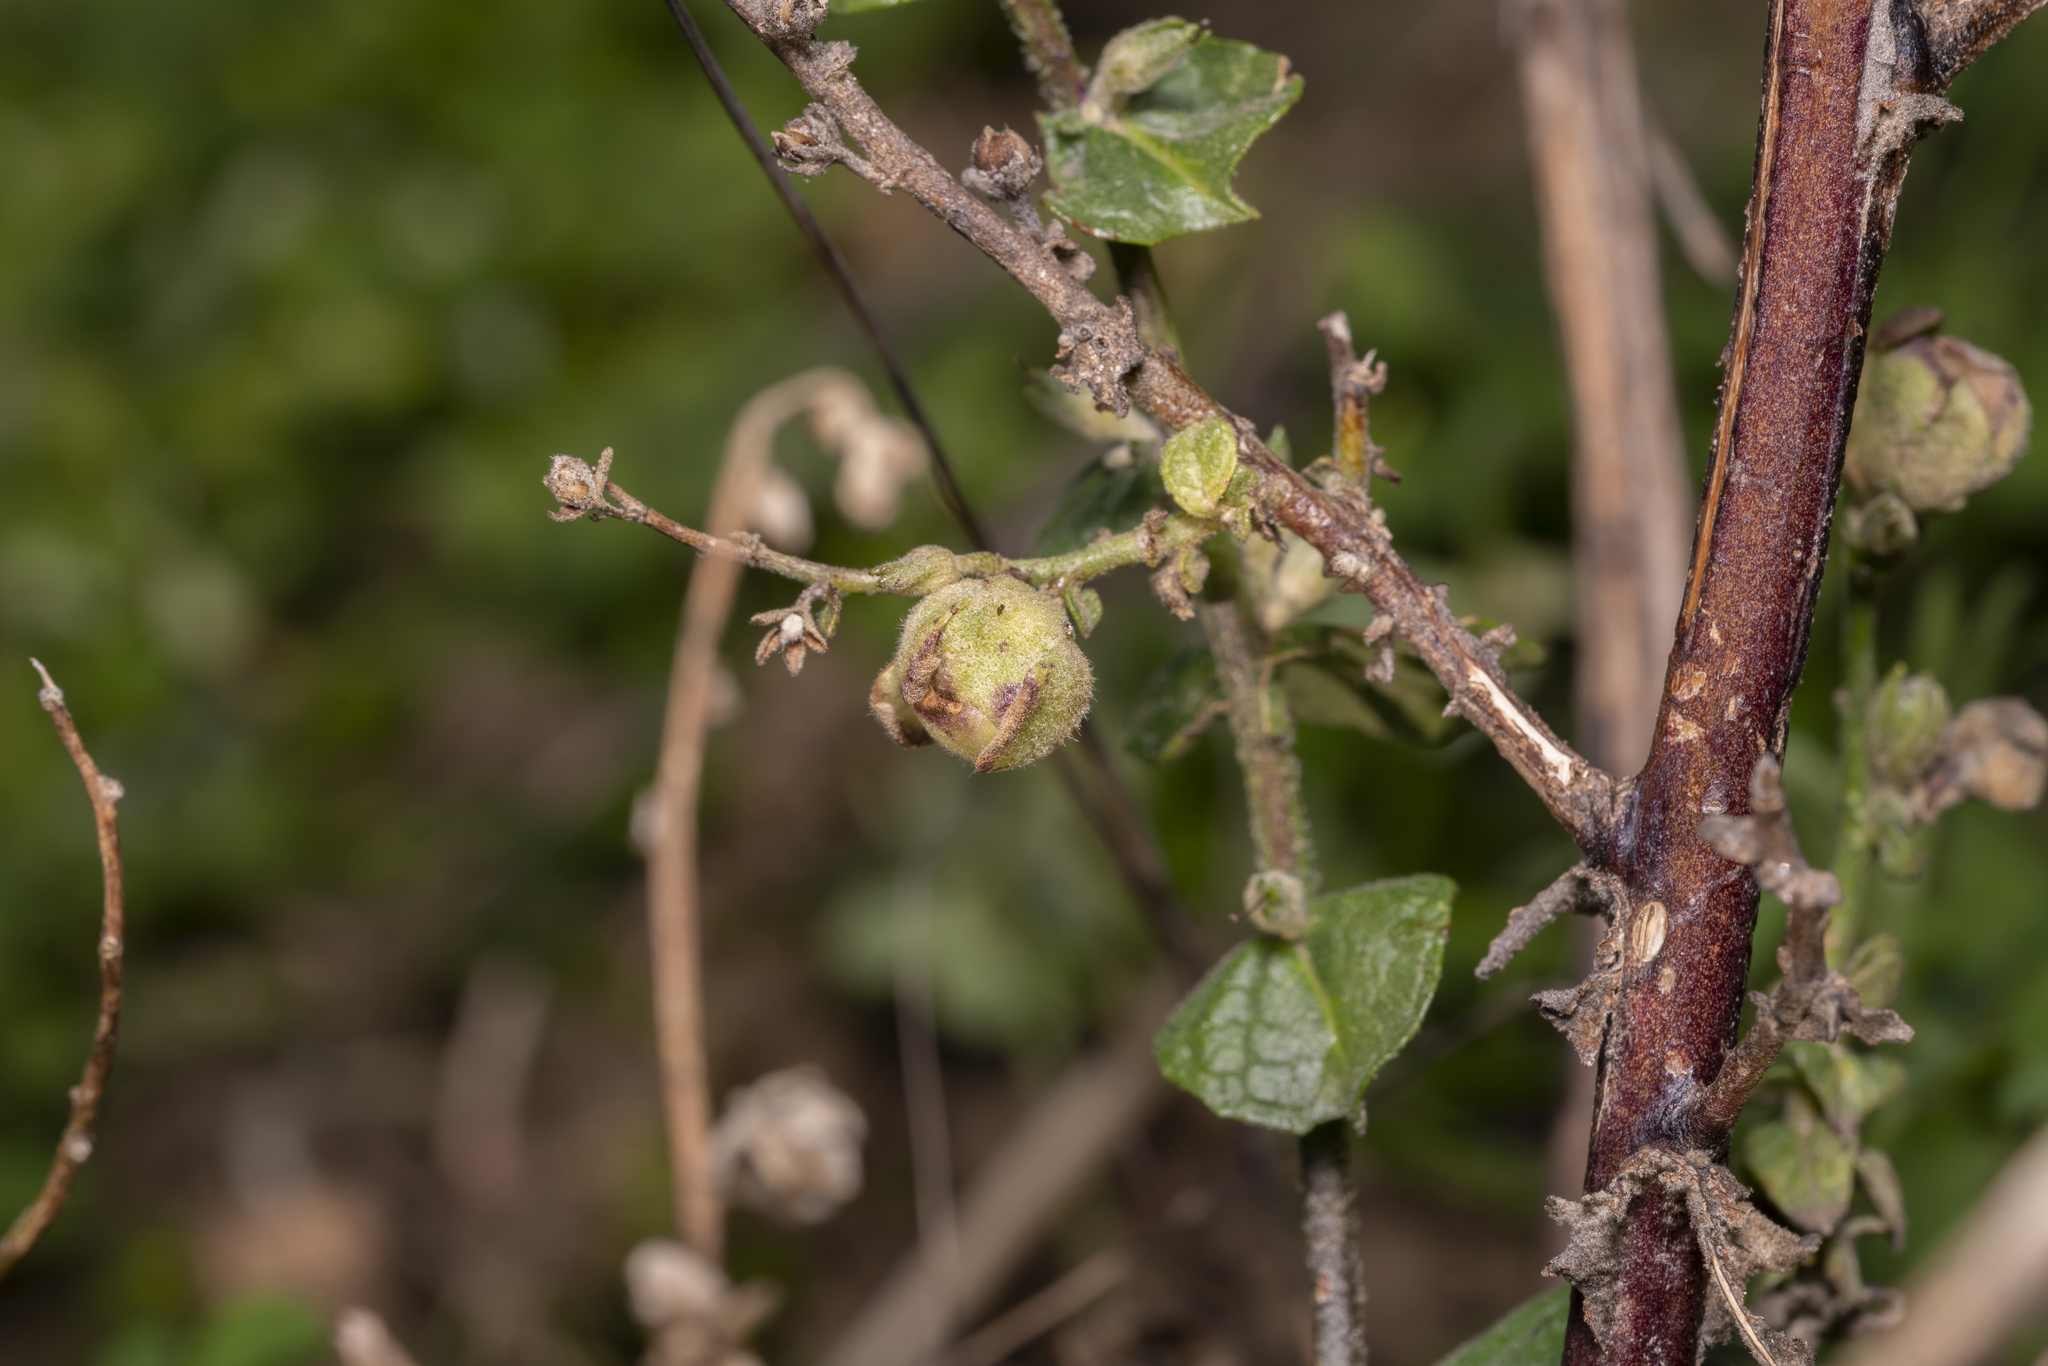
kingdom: Animalia
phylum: Arthropoda
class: Insecta
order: Diptera
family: Cecidomyiidae
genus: Asphondylia
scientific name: Asphondylia verbasci
